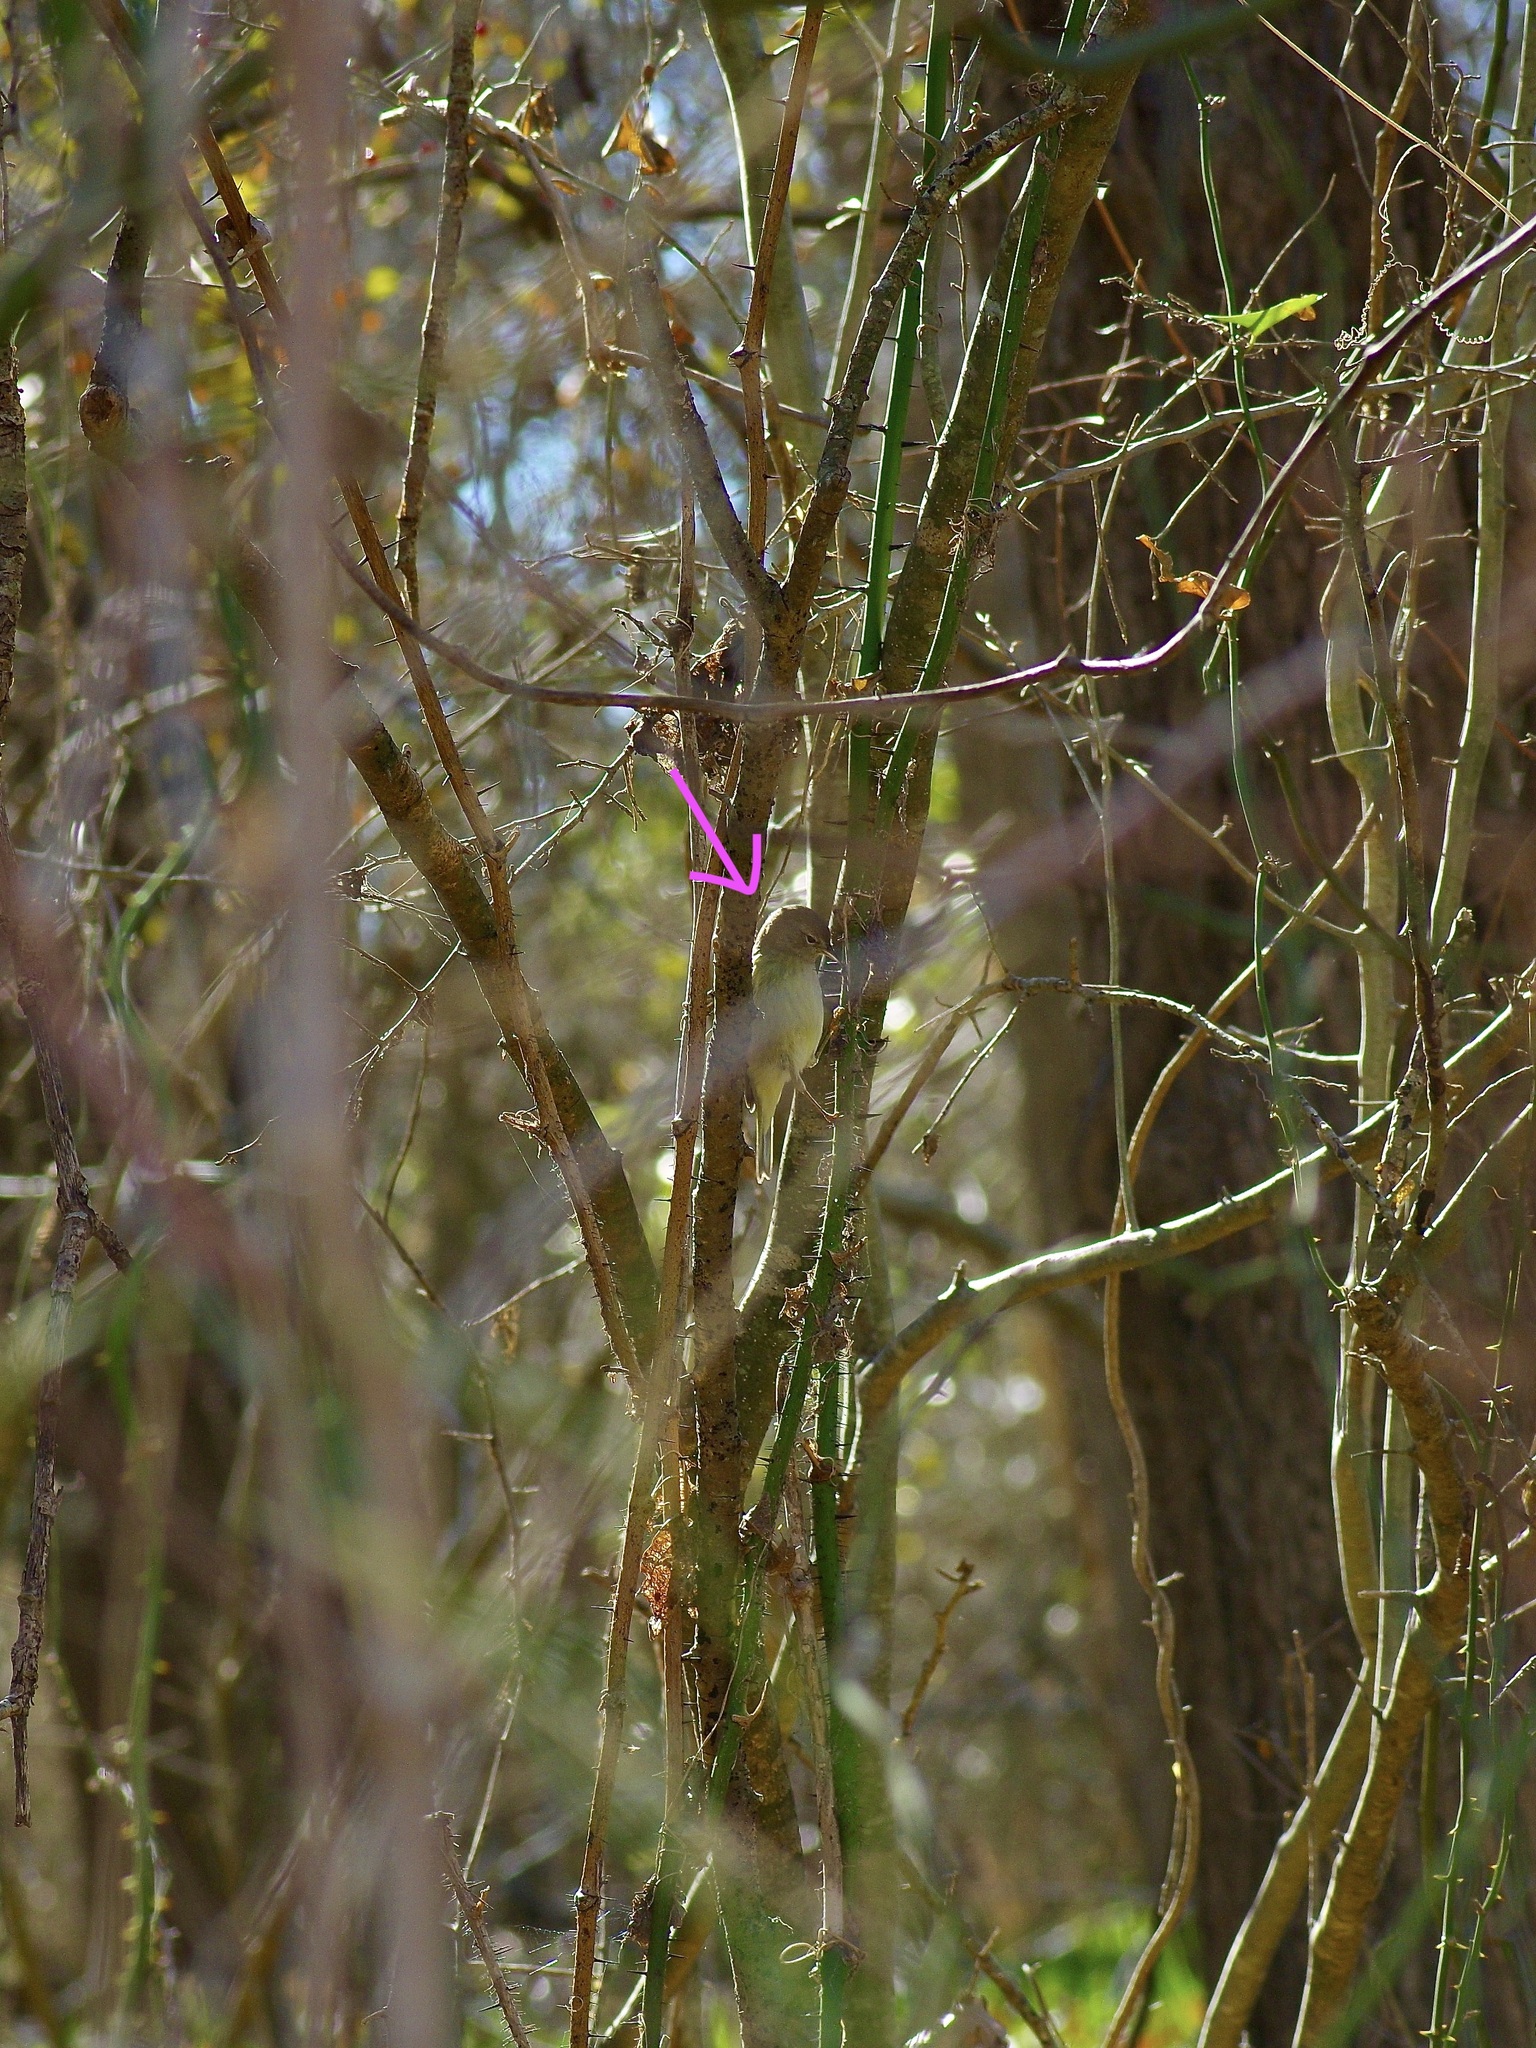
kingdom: Animalia
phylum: Chordata
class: Aves
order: Passeriformes
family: Parulidae
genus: Leiothlypis
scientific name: Leiothlypis celata
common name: Orange-crowned warbler
